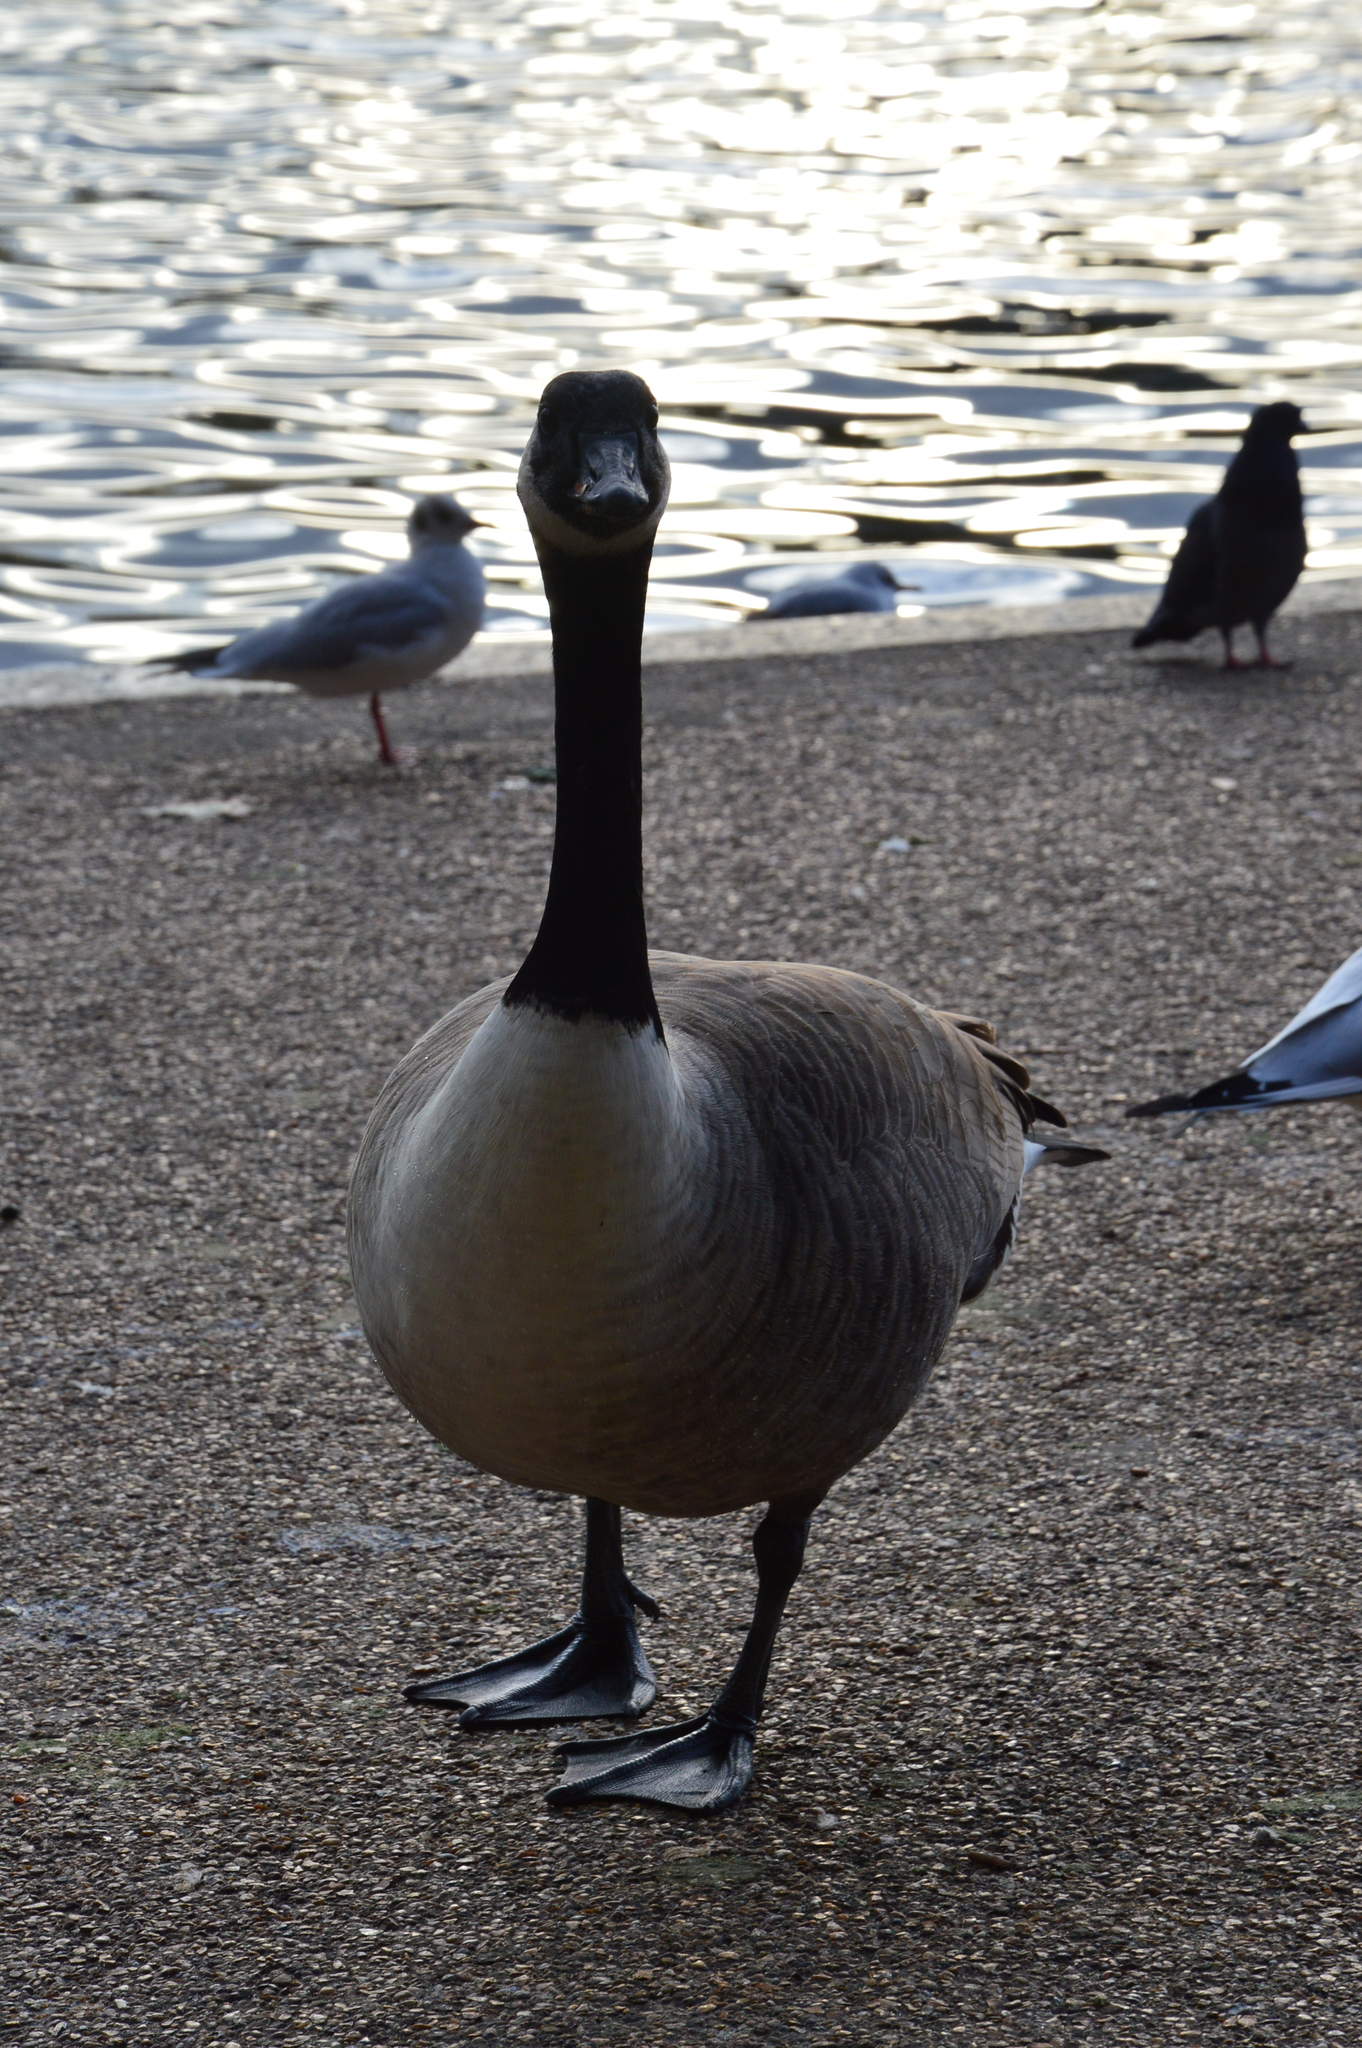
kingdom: Animalia
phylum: Chordata
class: Aves
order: Anseriformes
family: Anatidae
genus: Branta
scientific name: Branta canadensis
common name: Canada goose
